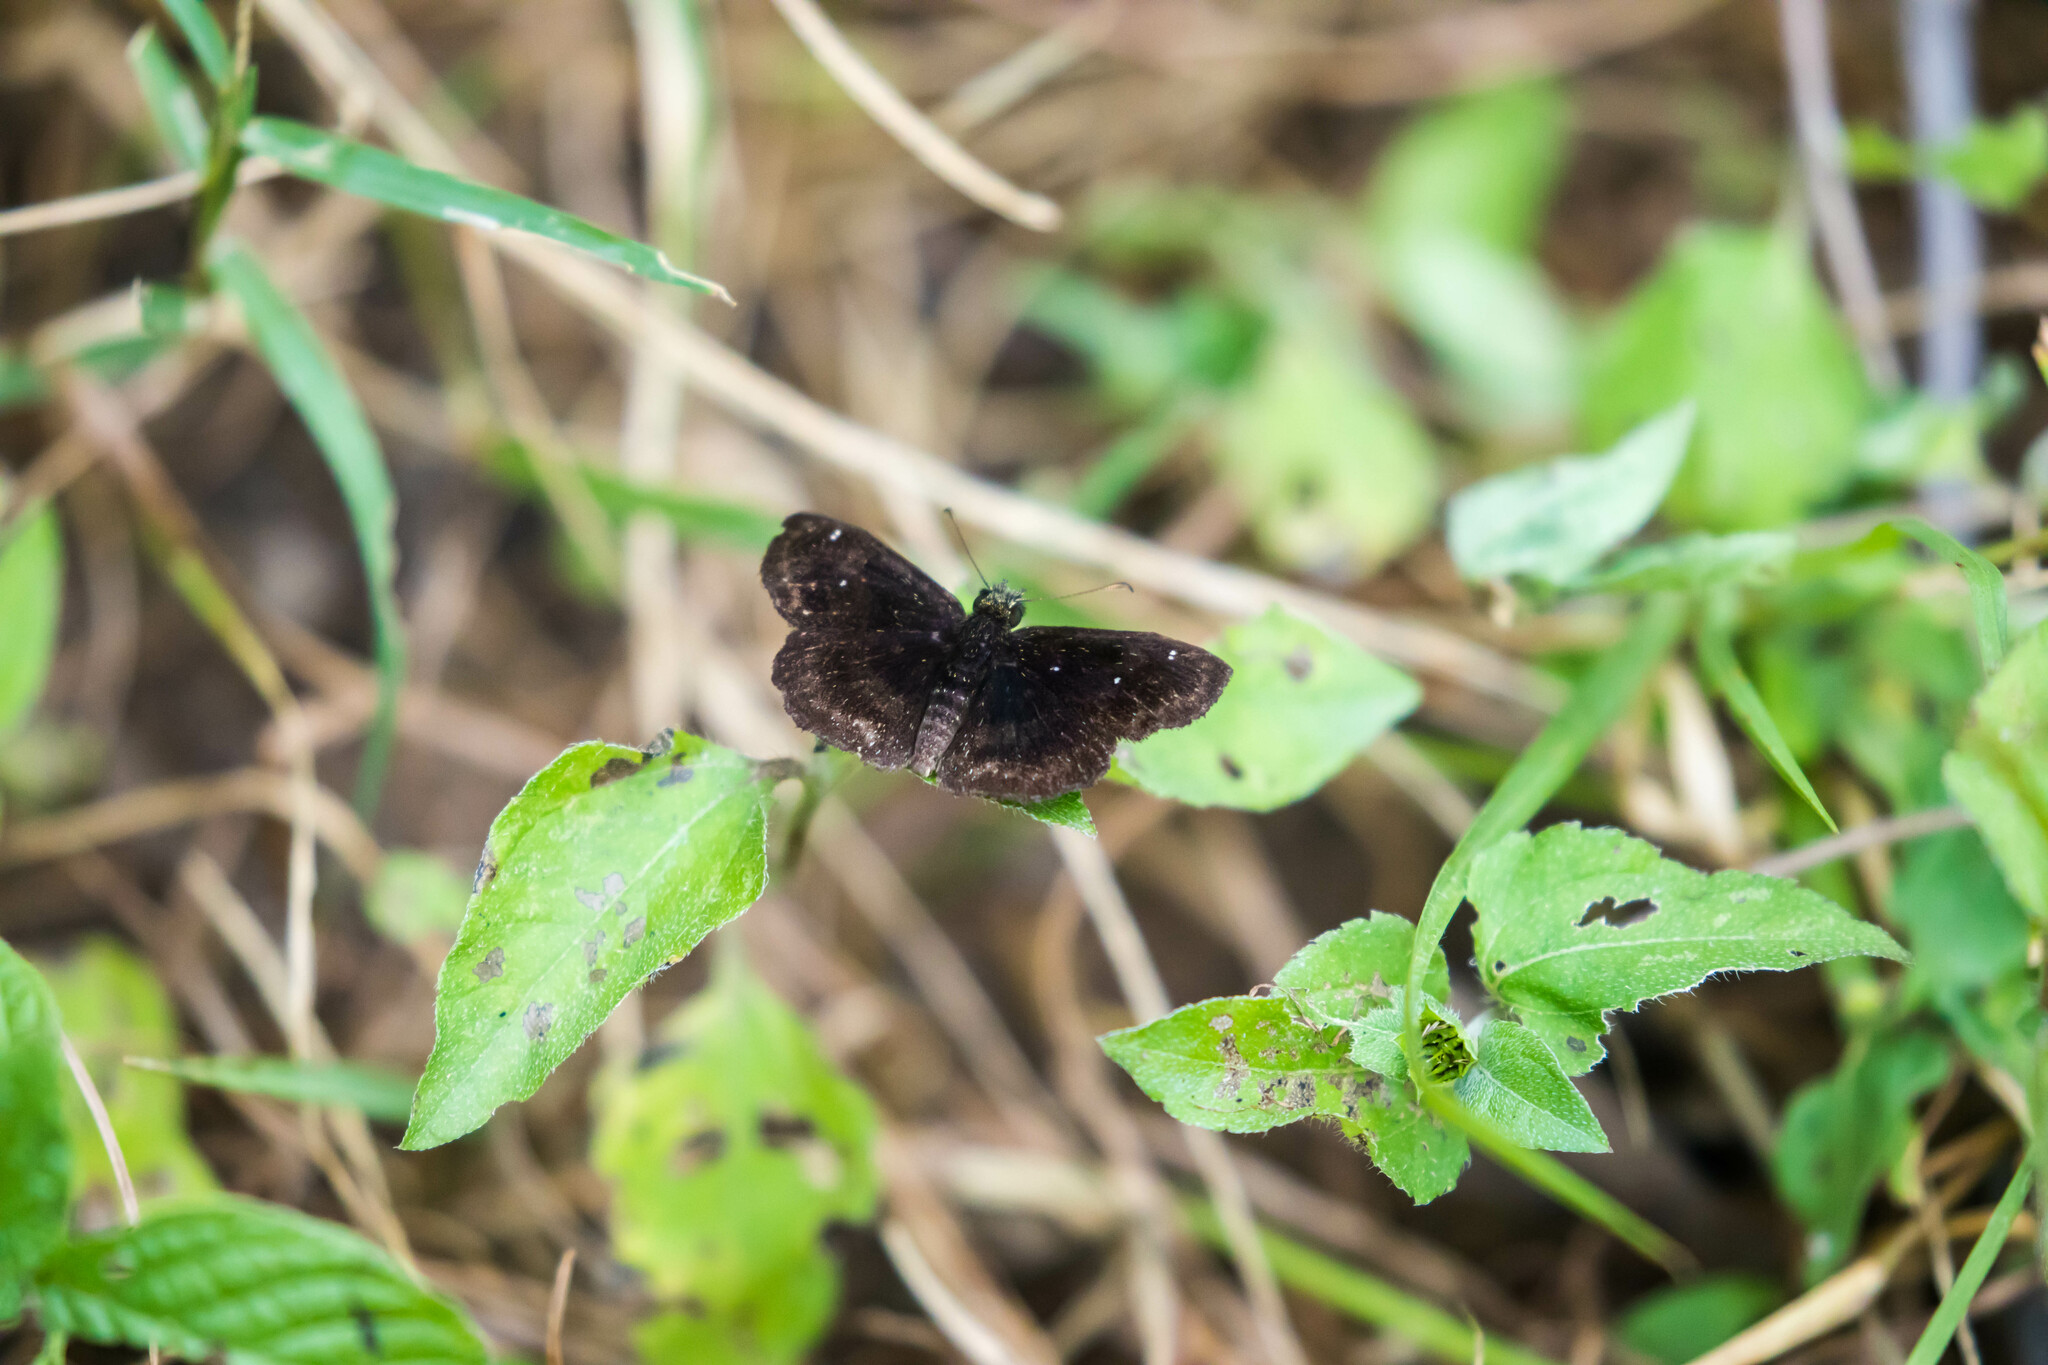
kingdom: Animalia
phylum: Arthropoda
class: Insecta
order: Lepidoptera
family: Hesperiidae
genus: Staphylus
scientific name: Staphylus mazans
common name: Mazans scallopwing
